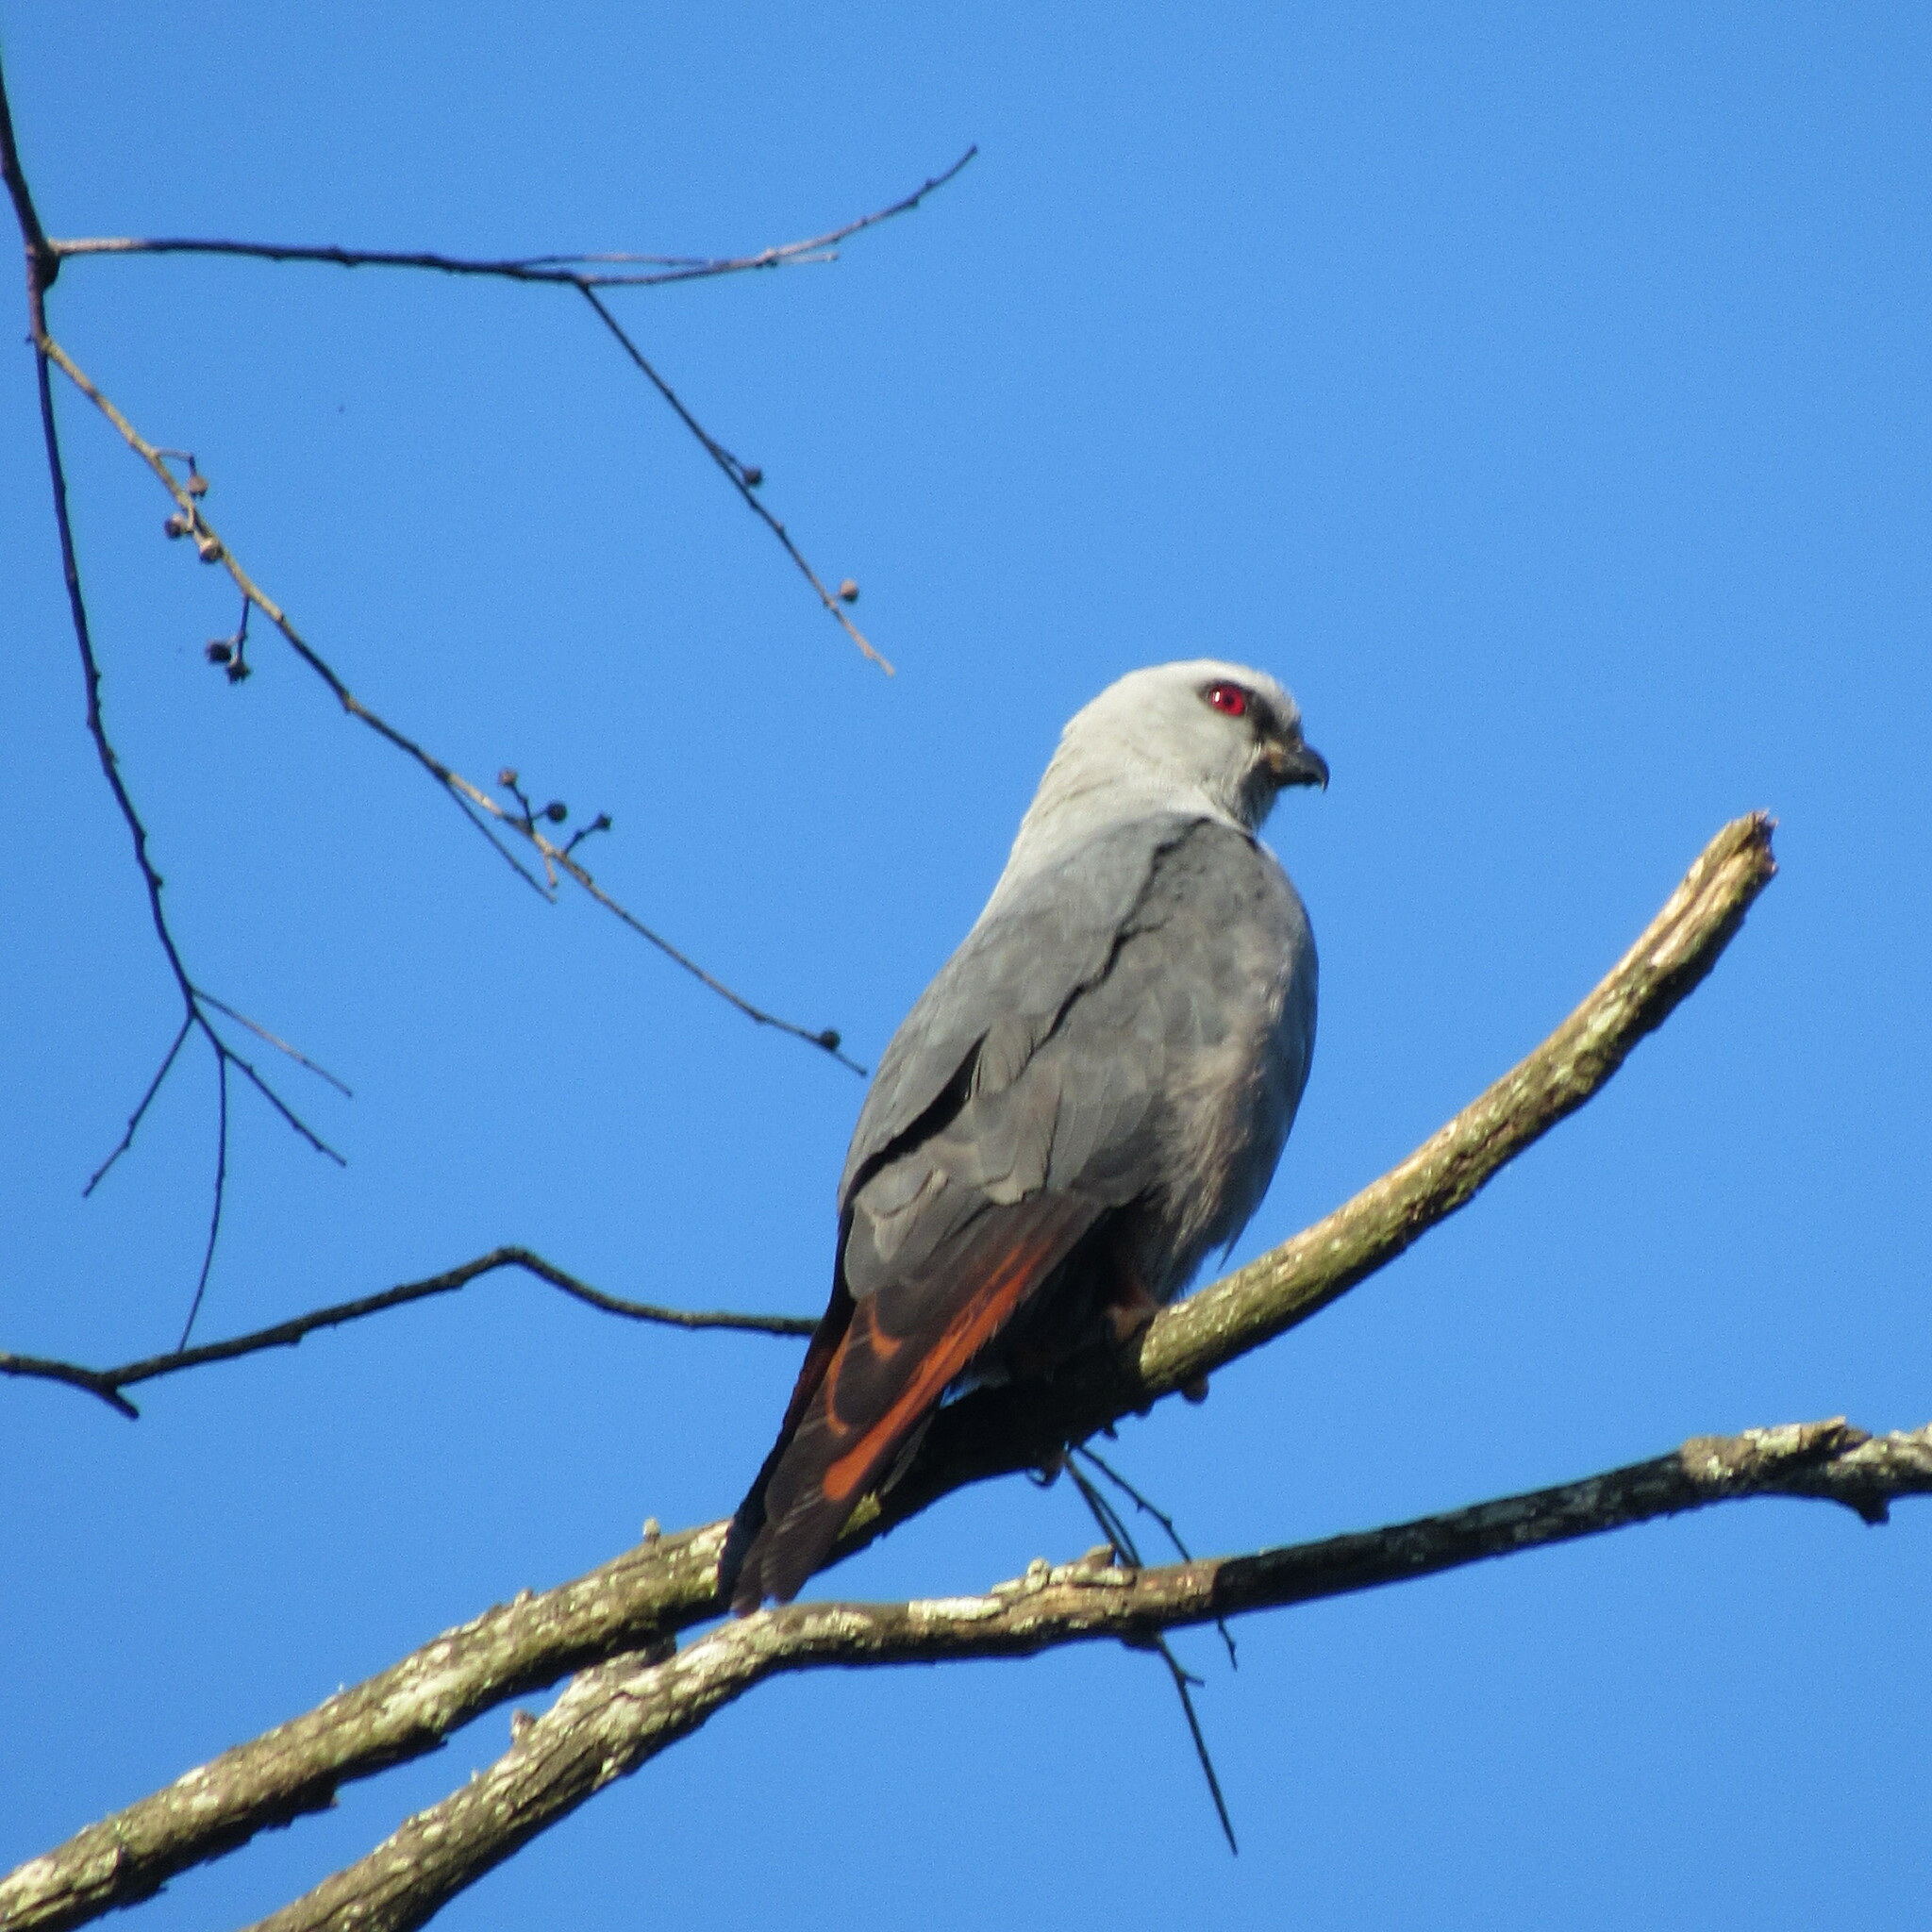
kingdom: Animalia
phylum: Chordata
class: Aves
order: Accipitriformes
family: Accipitridae
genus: Ictinia
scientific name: Ictinia plumbea
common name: Plumbeous kite
